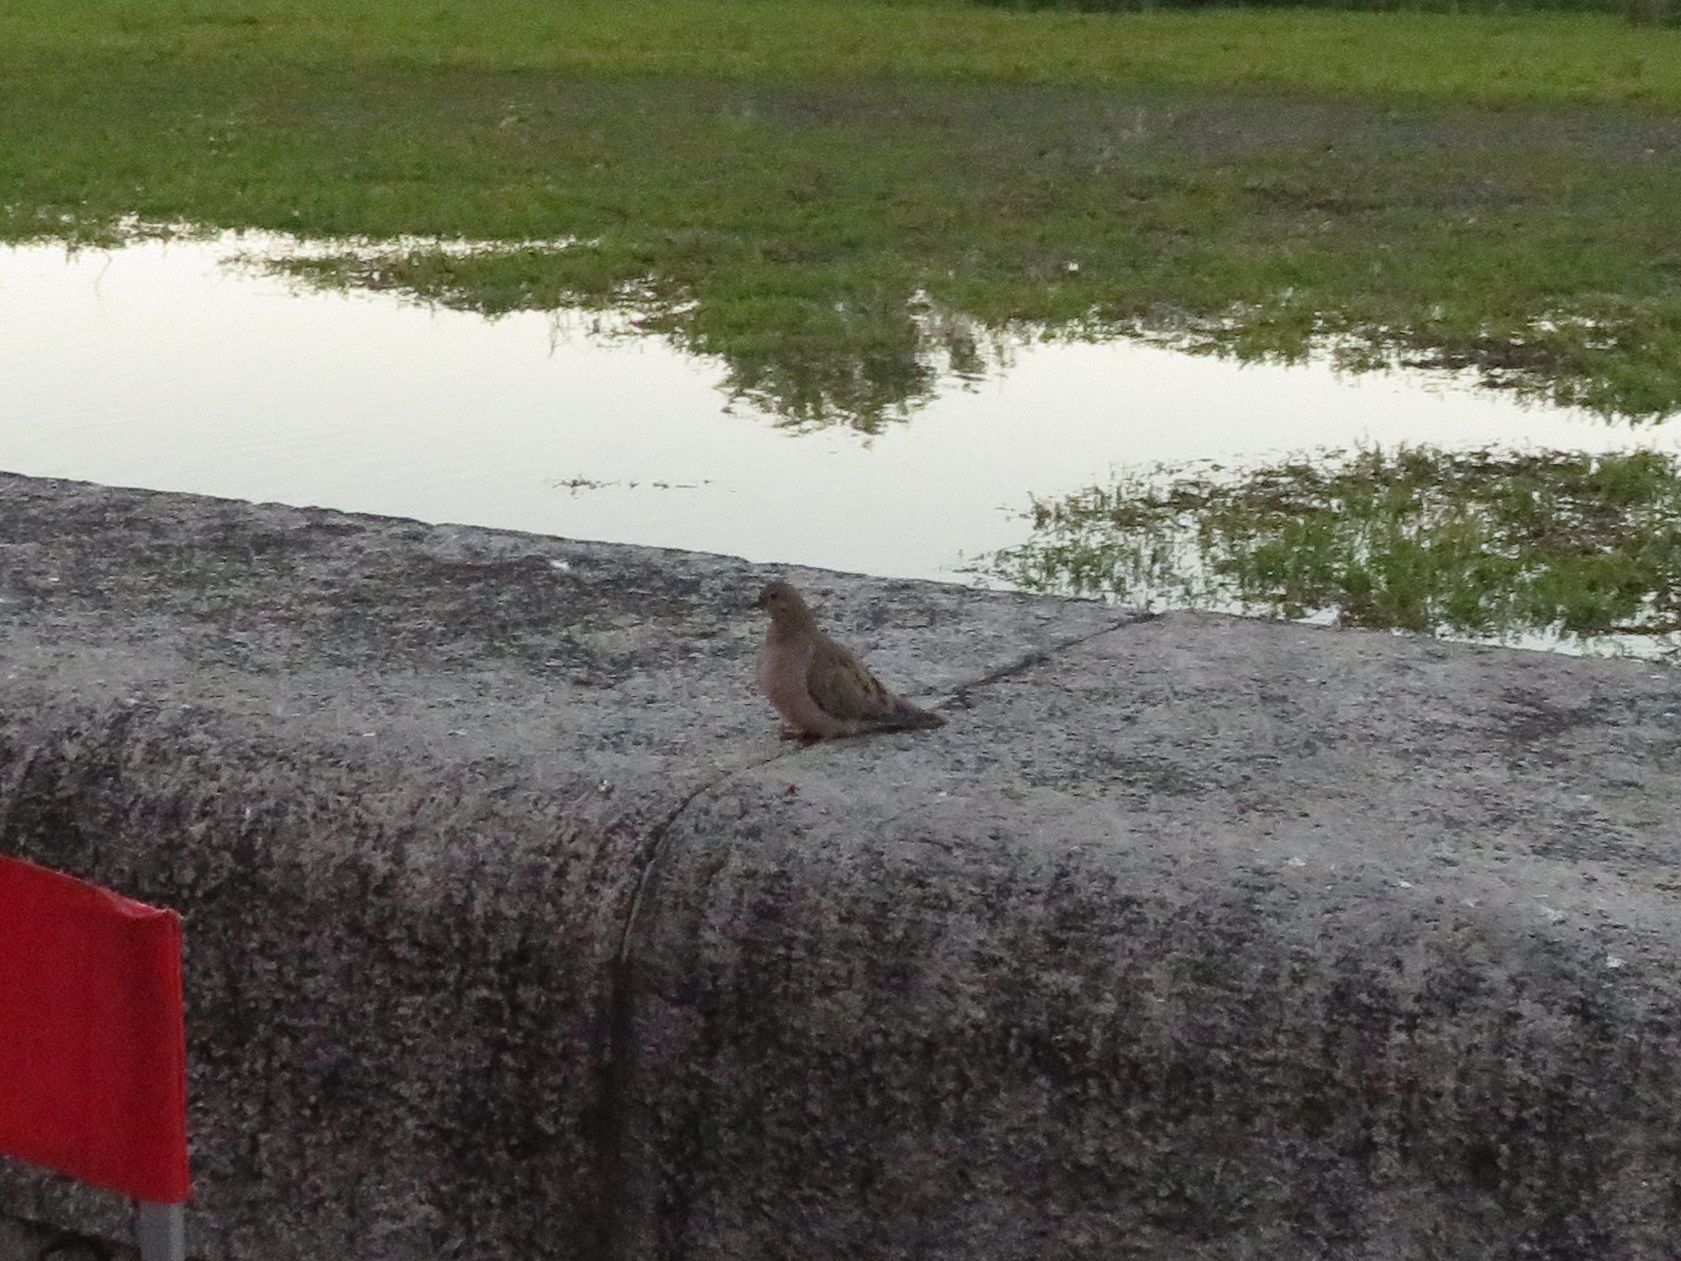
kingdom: Animalia
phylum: Chordata
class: Aves
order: Columbiformes
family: Columbidae
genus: Zenaida
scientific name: Zenaida auriculata
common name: Eared dove
